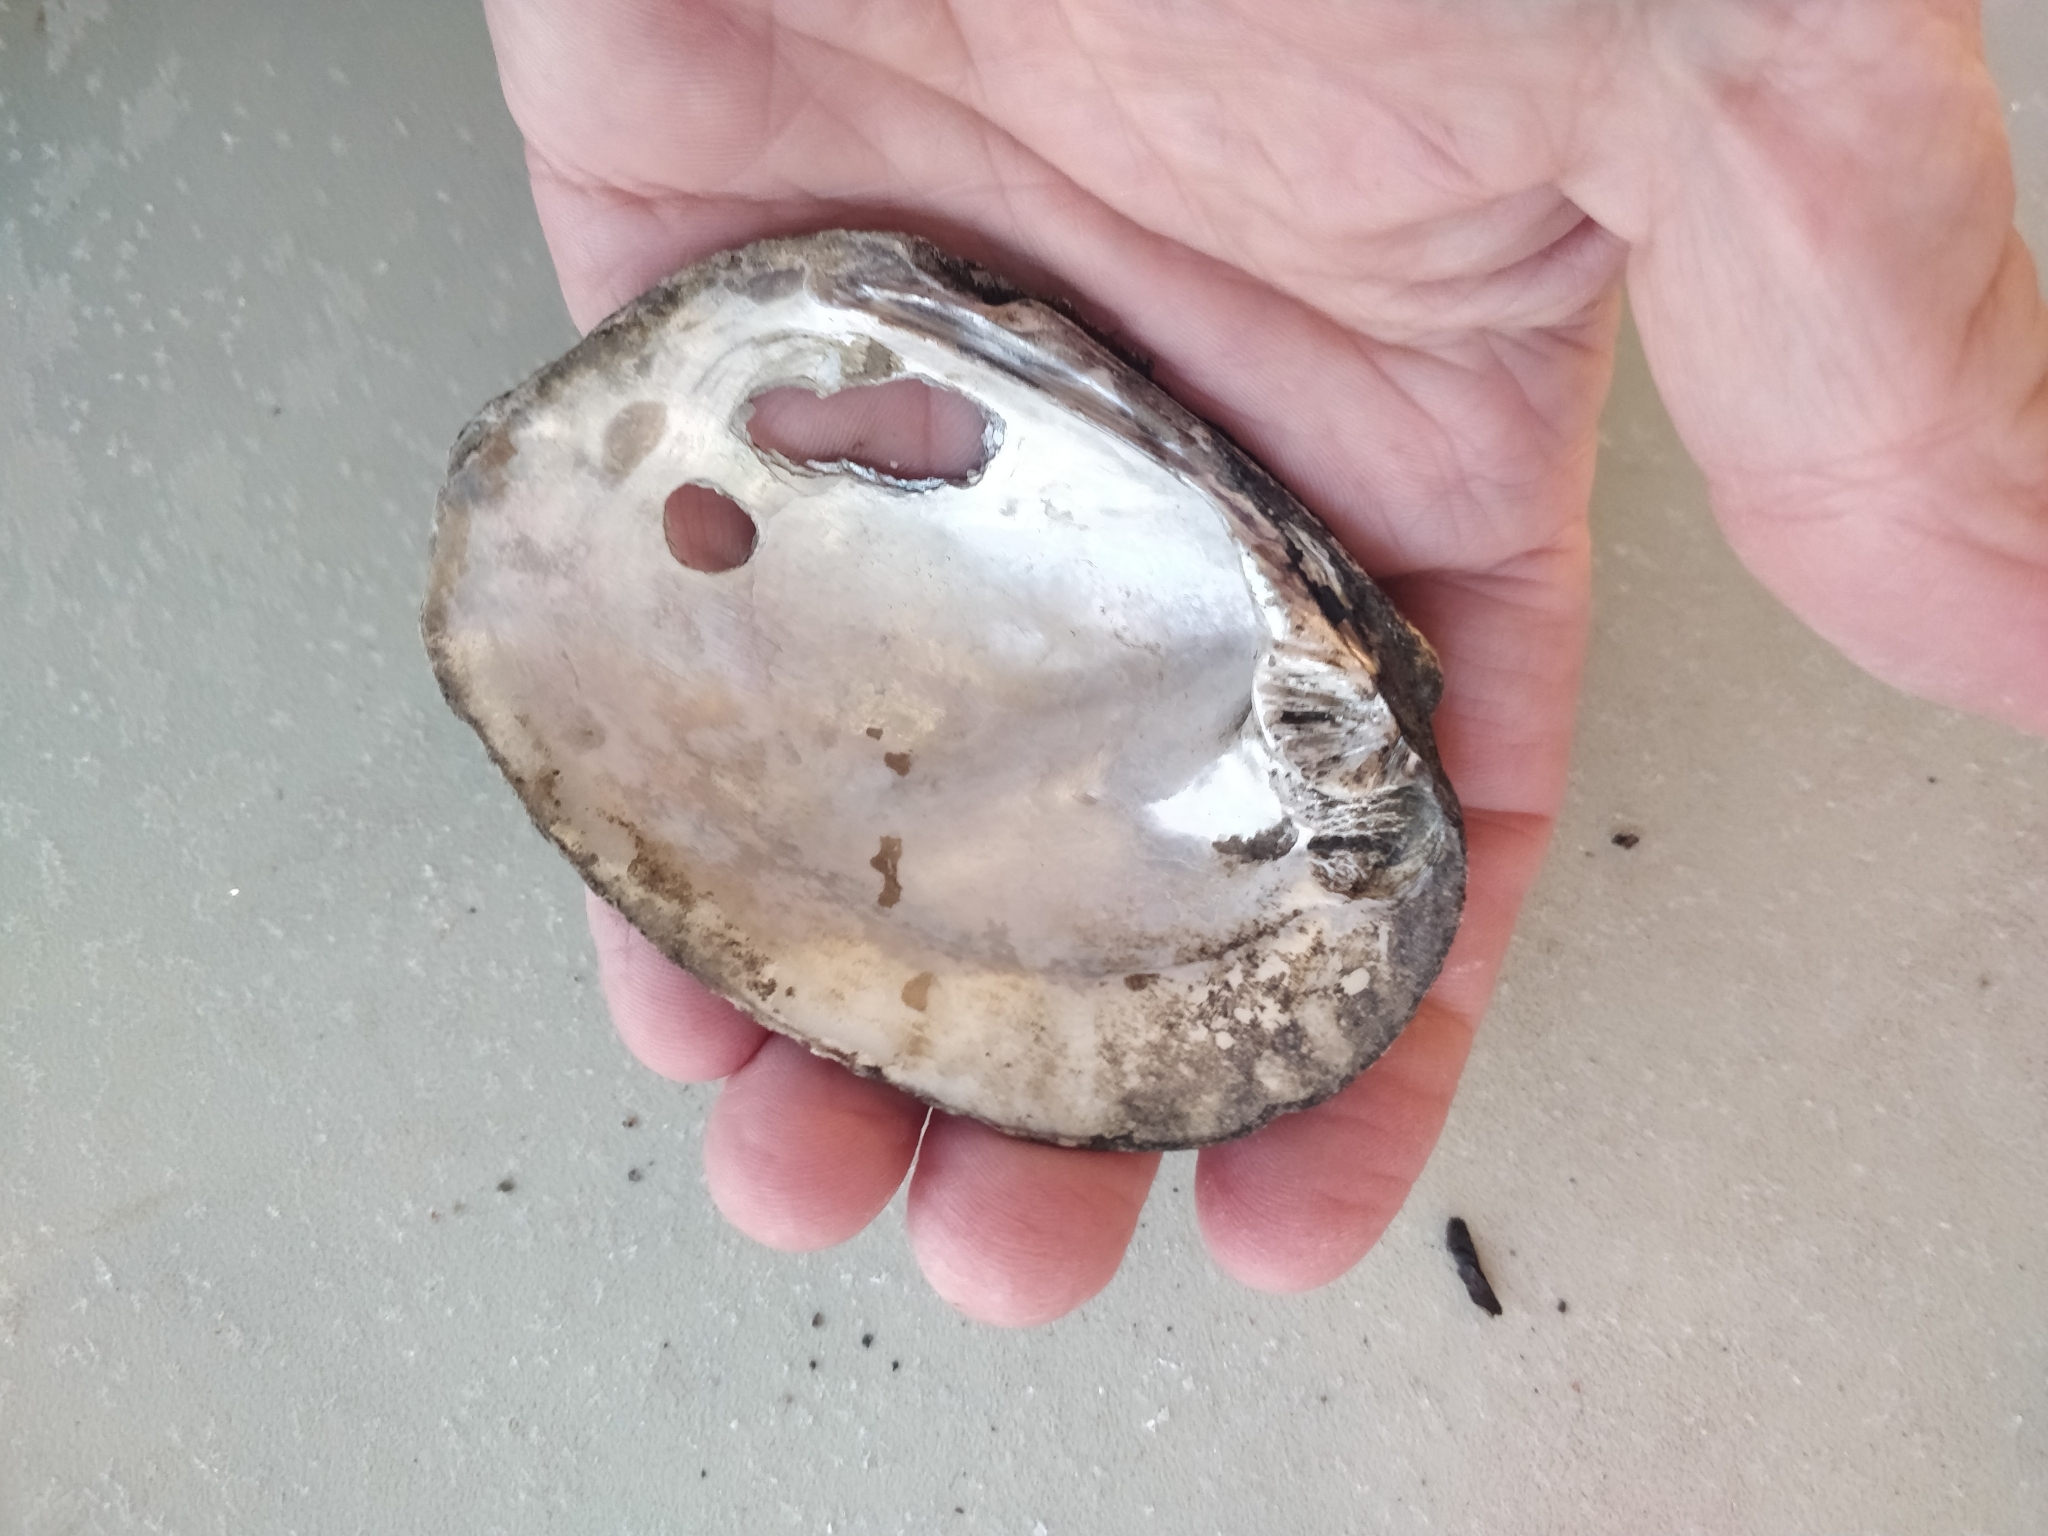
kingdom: Animalia
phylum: Mollusca
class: Bivalvia
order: Unionida
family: Unionidae
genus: Amblema
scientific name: Amblema plicata
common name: Threeridge
